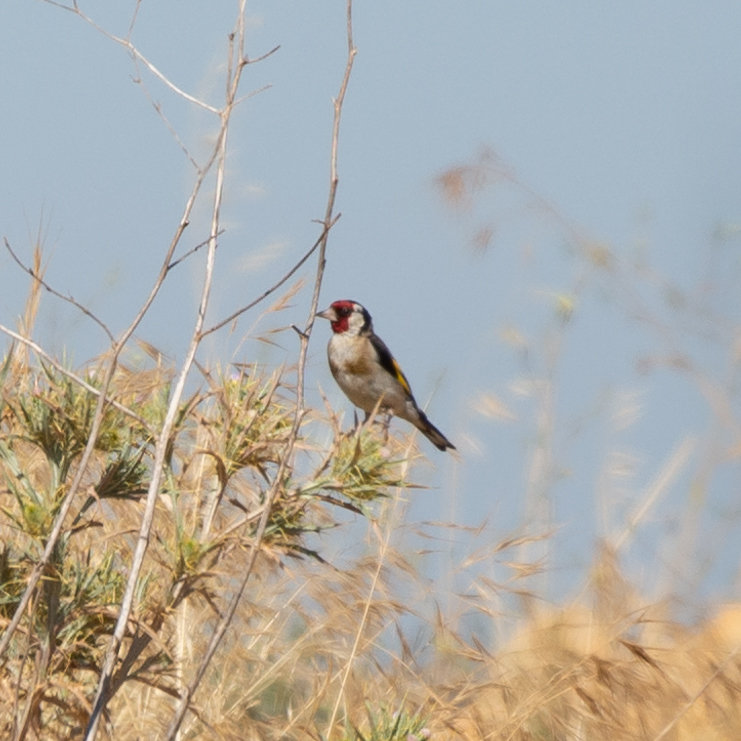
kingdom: Animalia
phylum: Chordata
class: Aves
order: Passeriformes
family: Fringillidae
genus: Carduelis
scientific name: Carduelis carduelis
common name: European goldfinch
